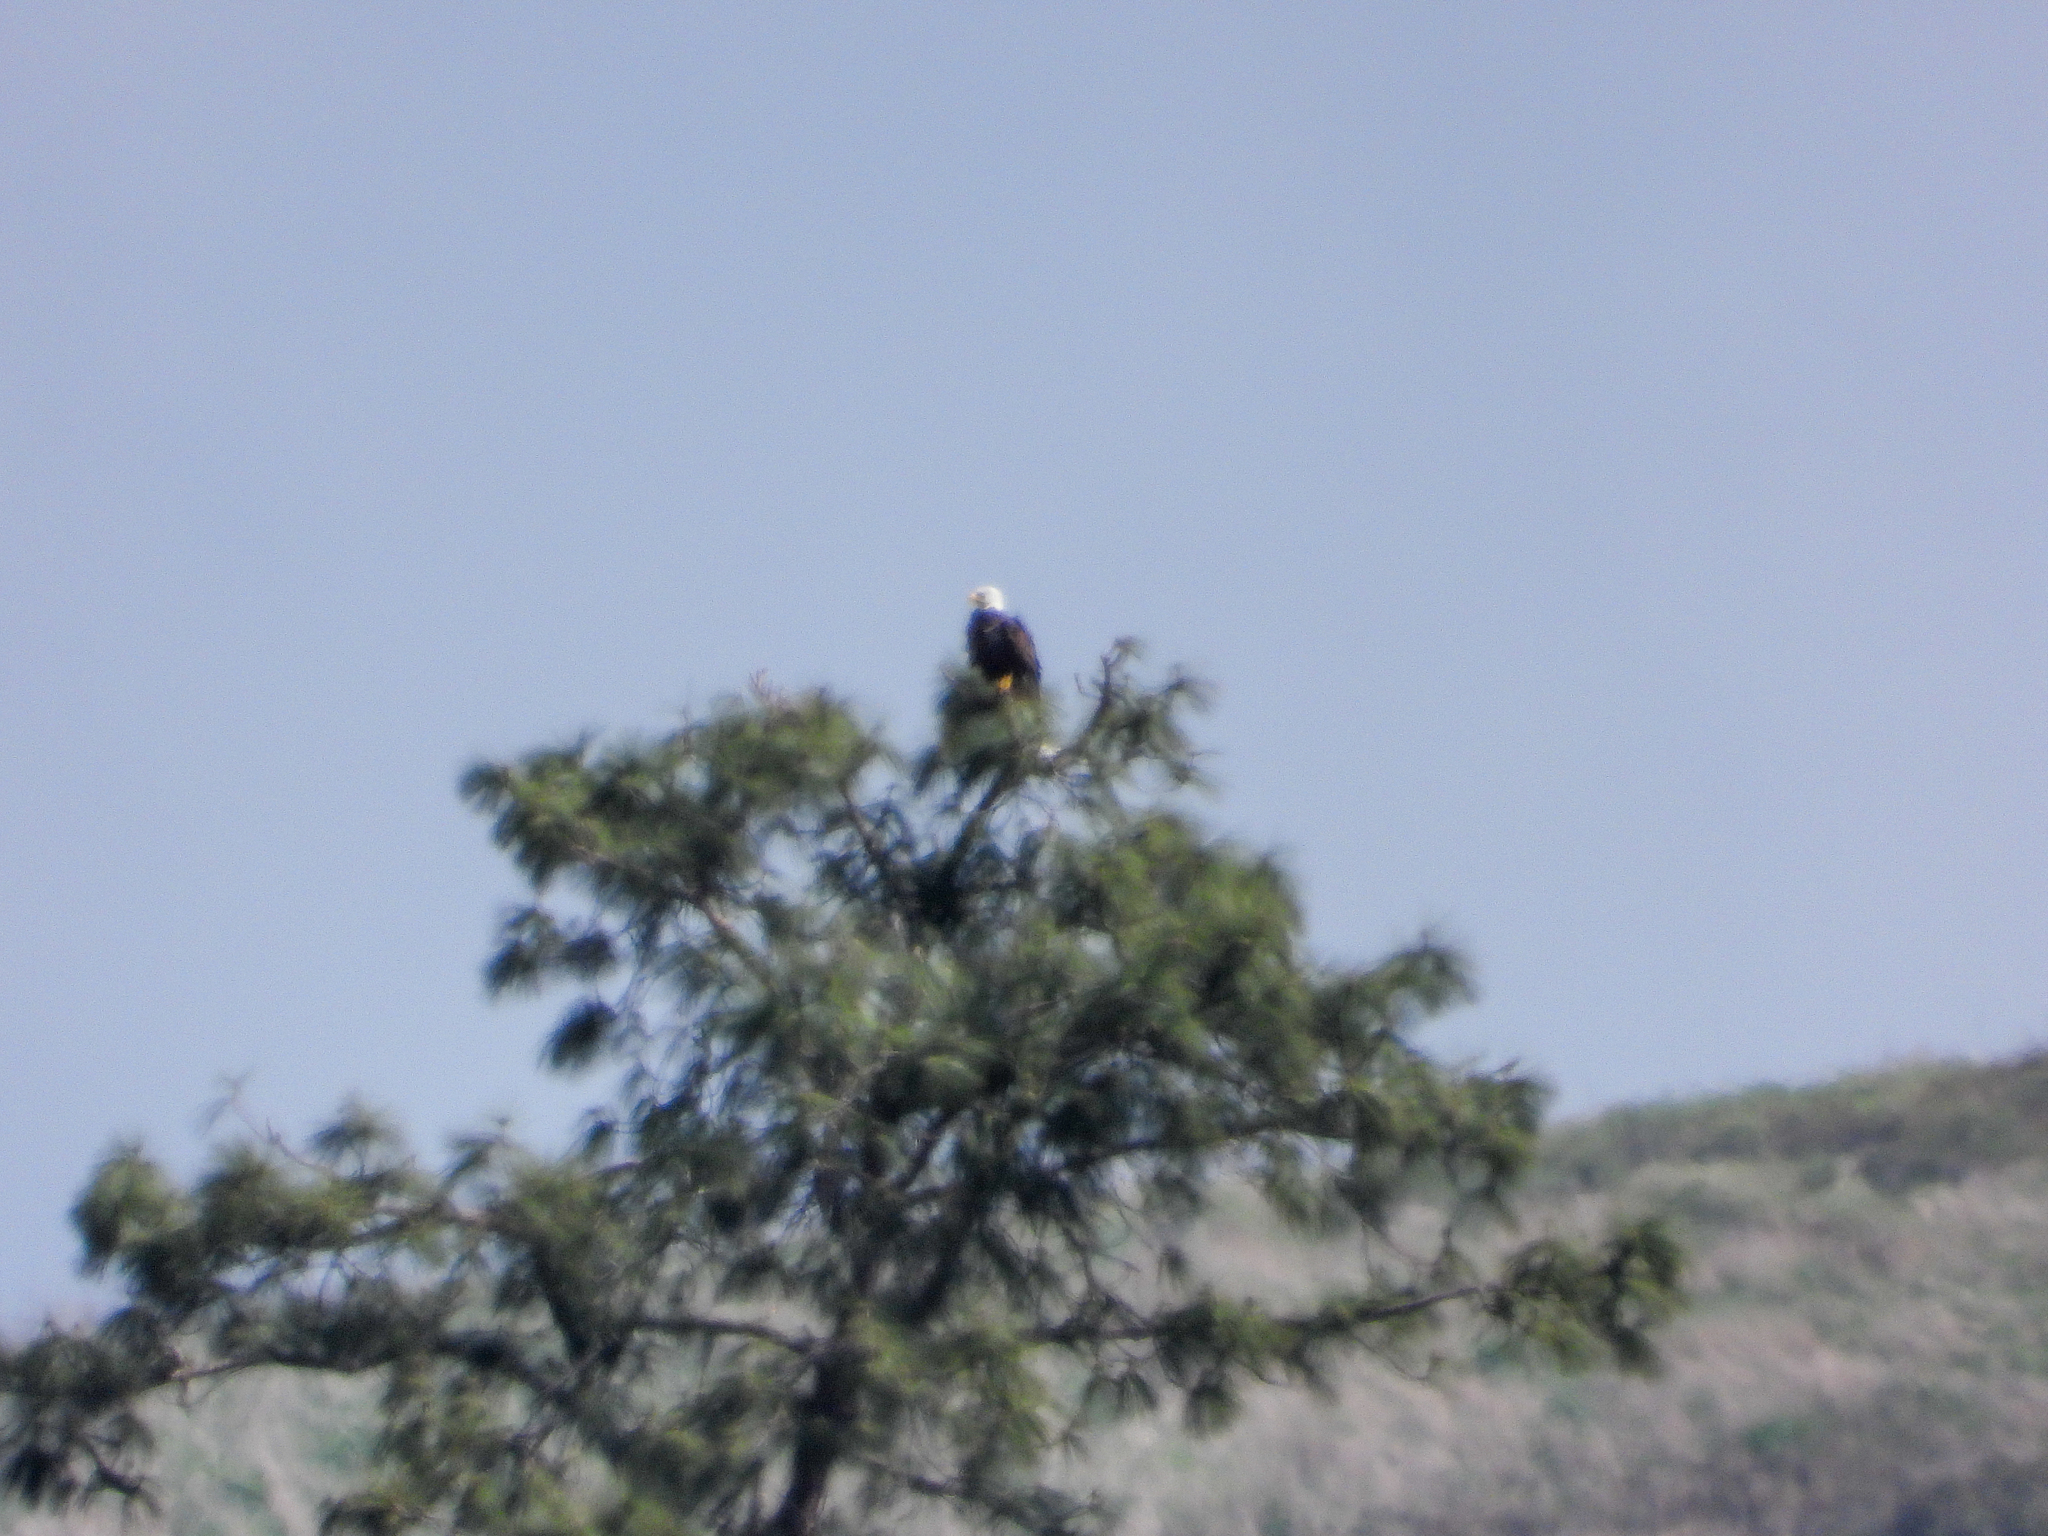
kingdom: Animalia
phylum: Chordata
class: Aves
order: Accipitriformes
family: Accipitridae
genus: Haliaeetus
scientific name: Haliaeetus leucocephalus
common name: Bald eagle
